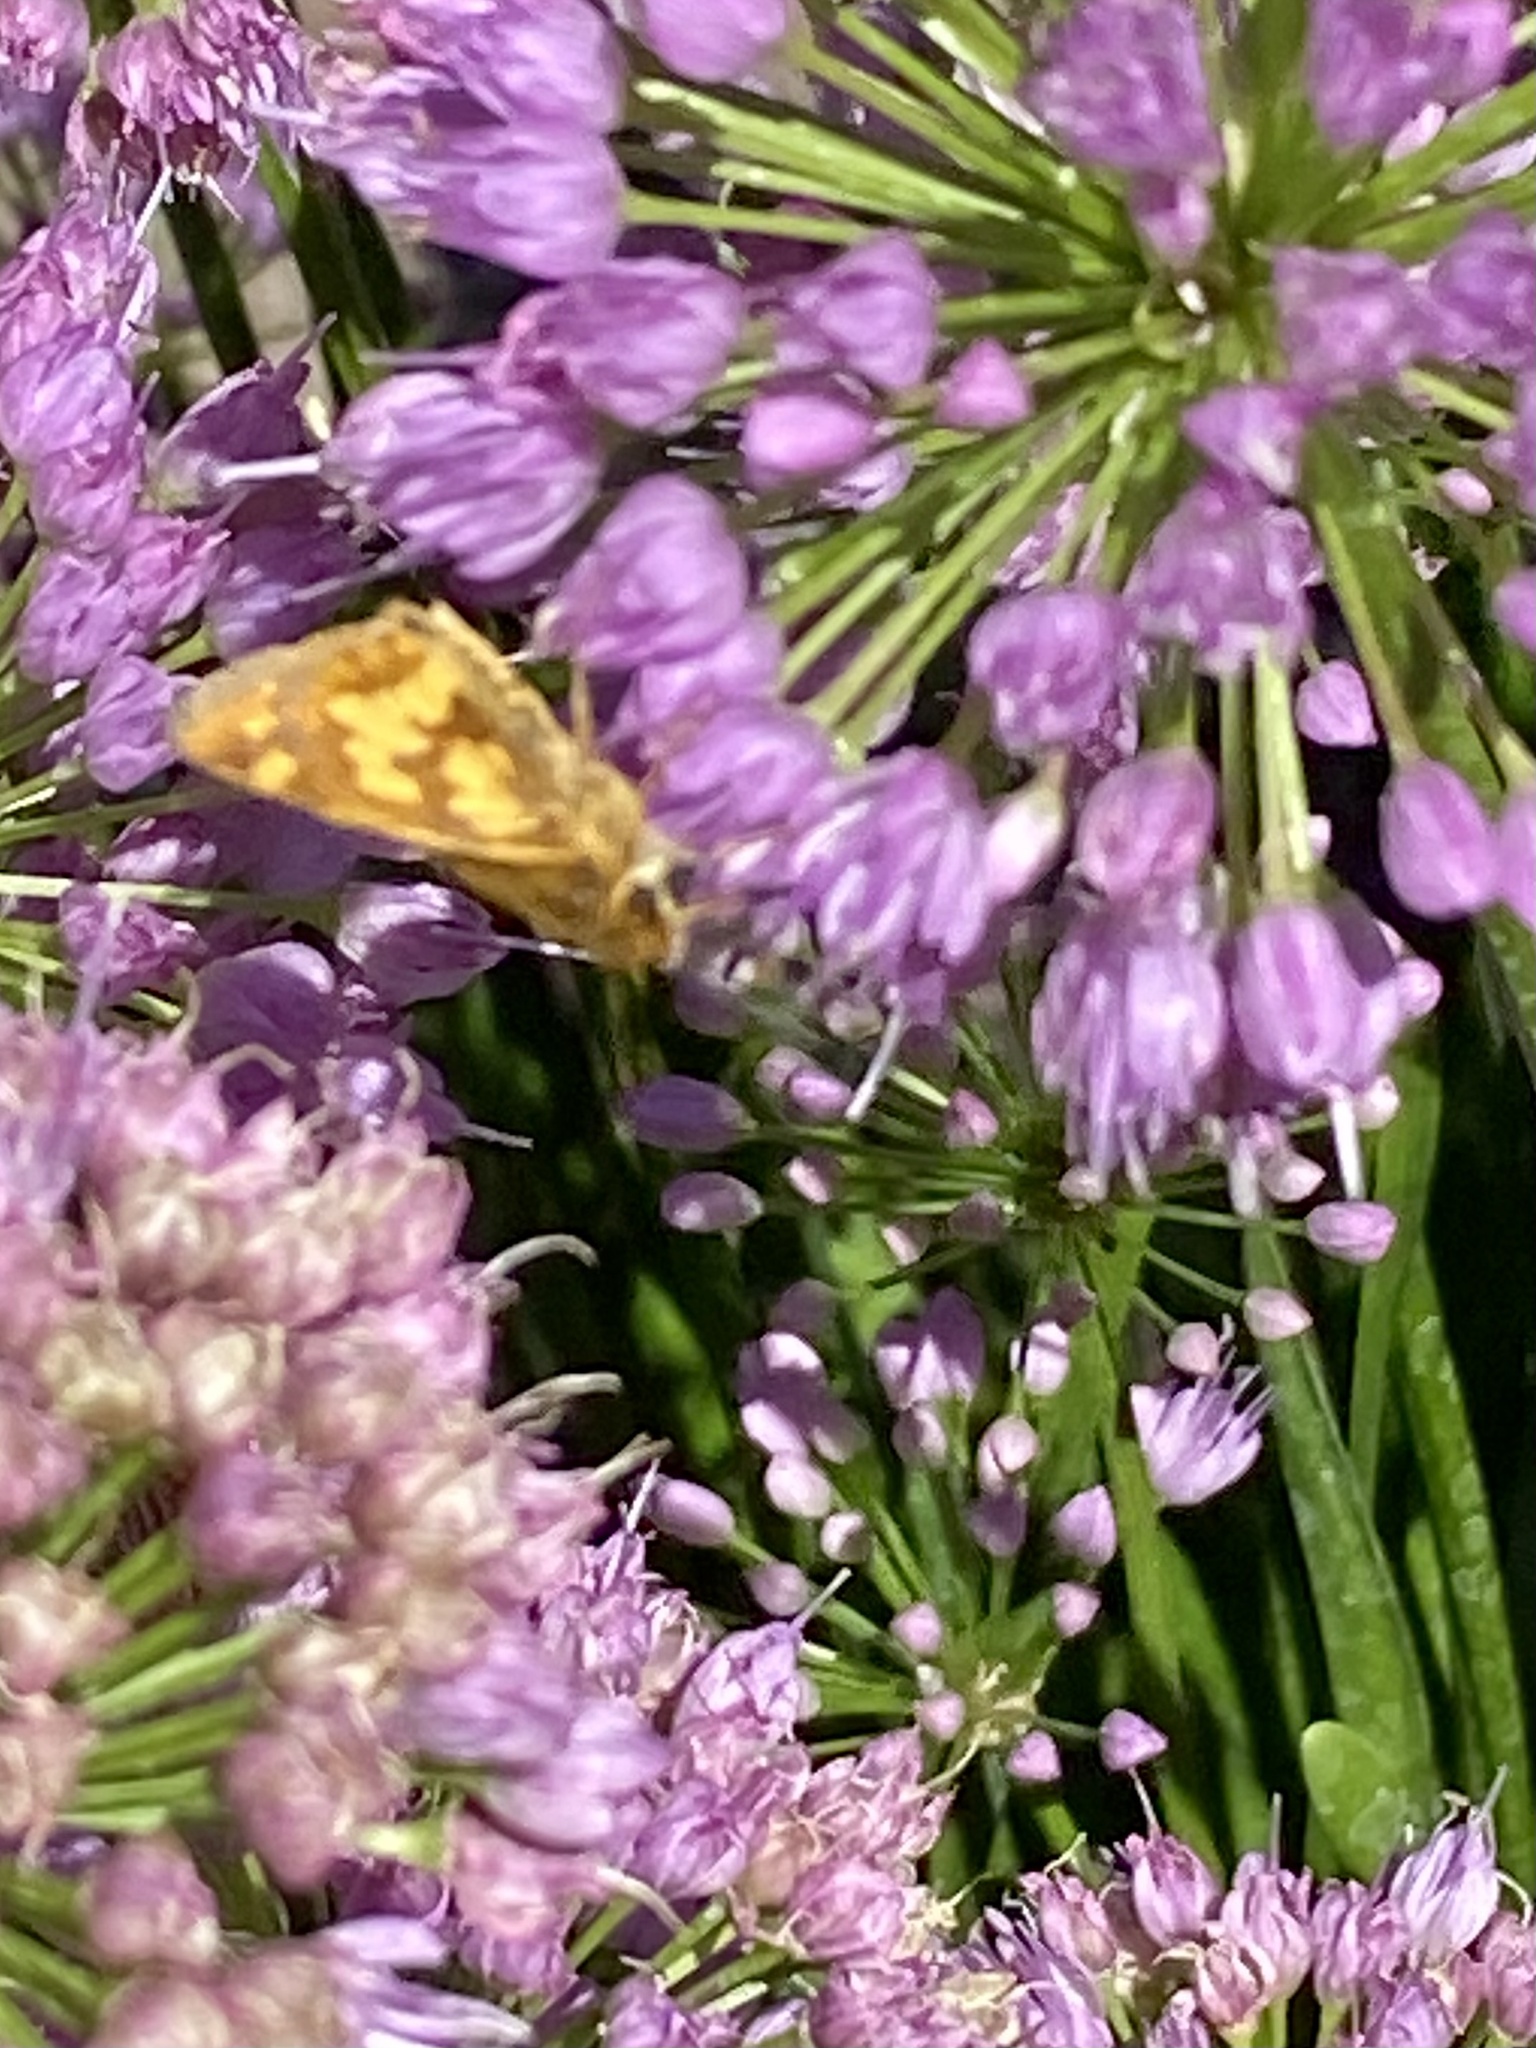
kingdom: Animalia
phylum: Arthropoda
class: Insecta
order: Lepidoptera
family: Hesperiidae
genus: Polites
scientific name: Polites coras
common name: Peck's skipper
